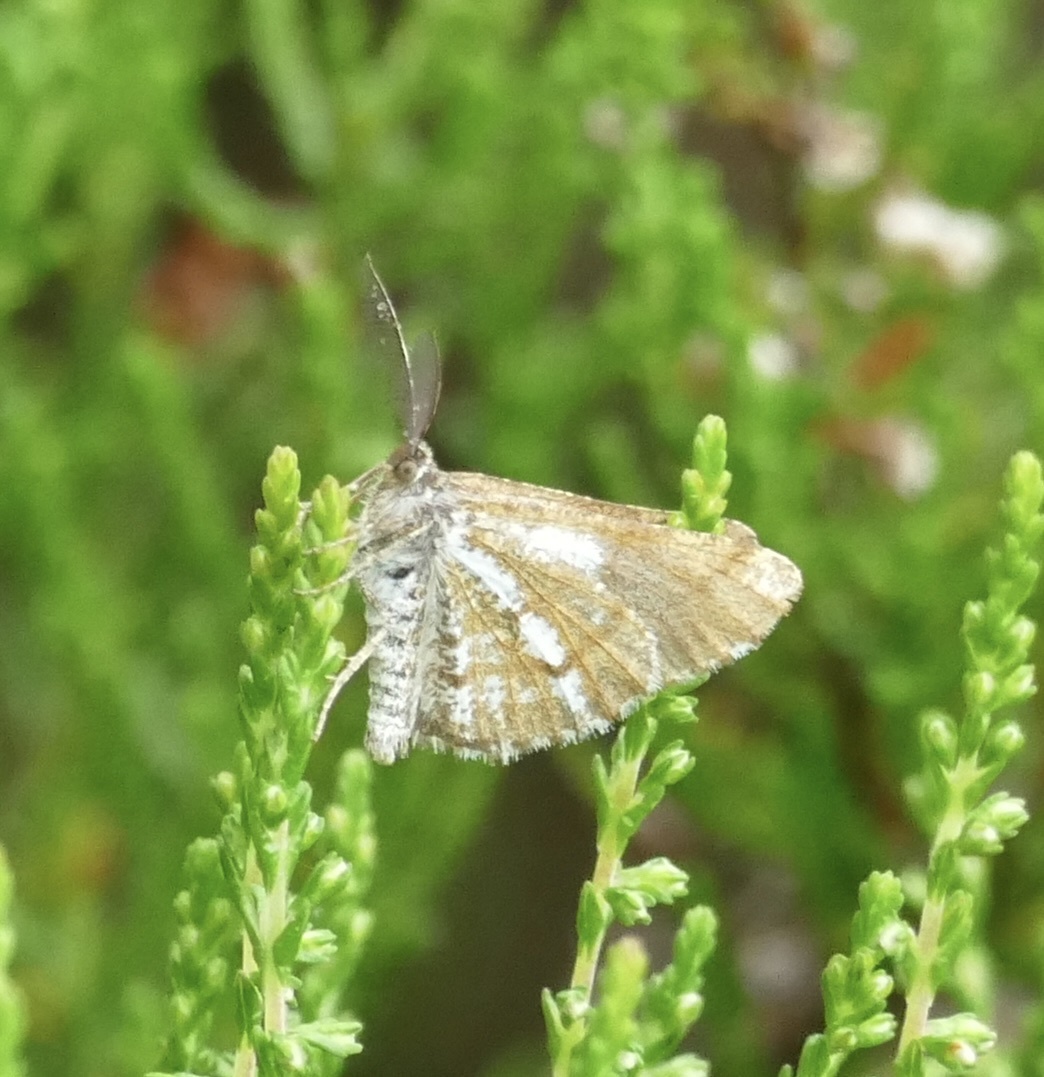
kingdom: Animalia
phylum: Arthropoda
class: Insecta
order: Lepidoptera
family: Geometridae
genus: Bupalus
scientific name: Bupalus piniaria
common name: Bordered white
